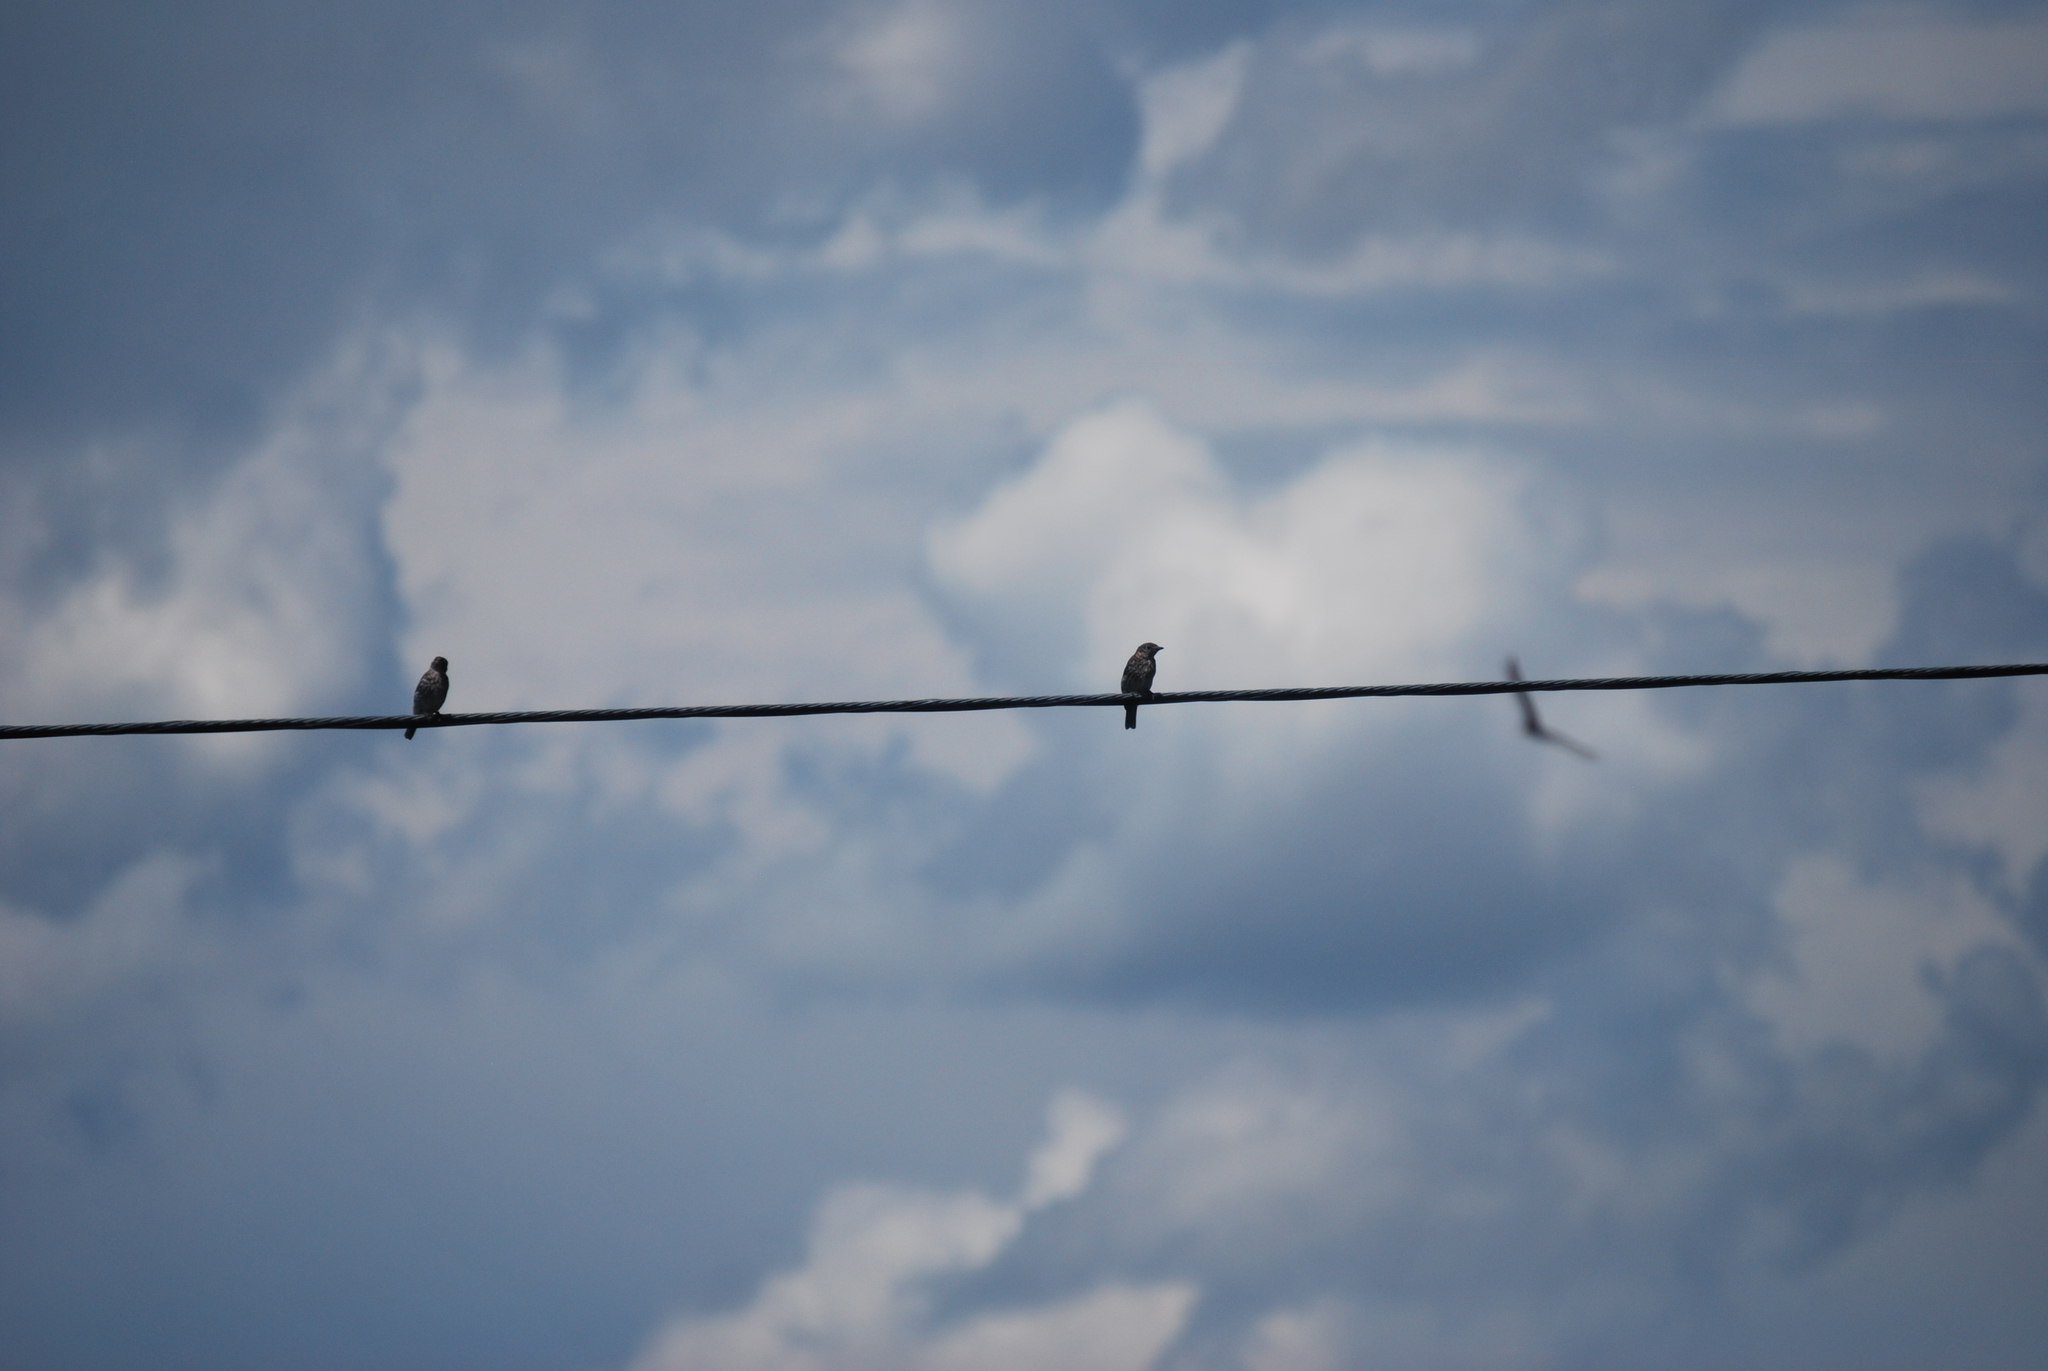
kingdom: Animalia
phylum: Chordata
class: Aves
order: Passeriformes
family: Turdidae
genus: Sialia
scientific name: Sialia sialis
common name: Eastern bluebird
